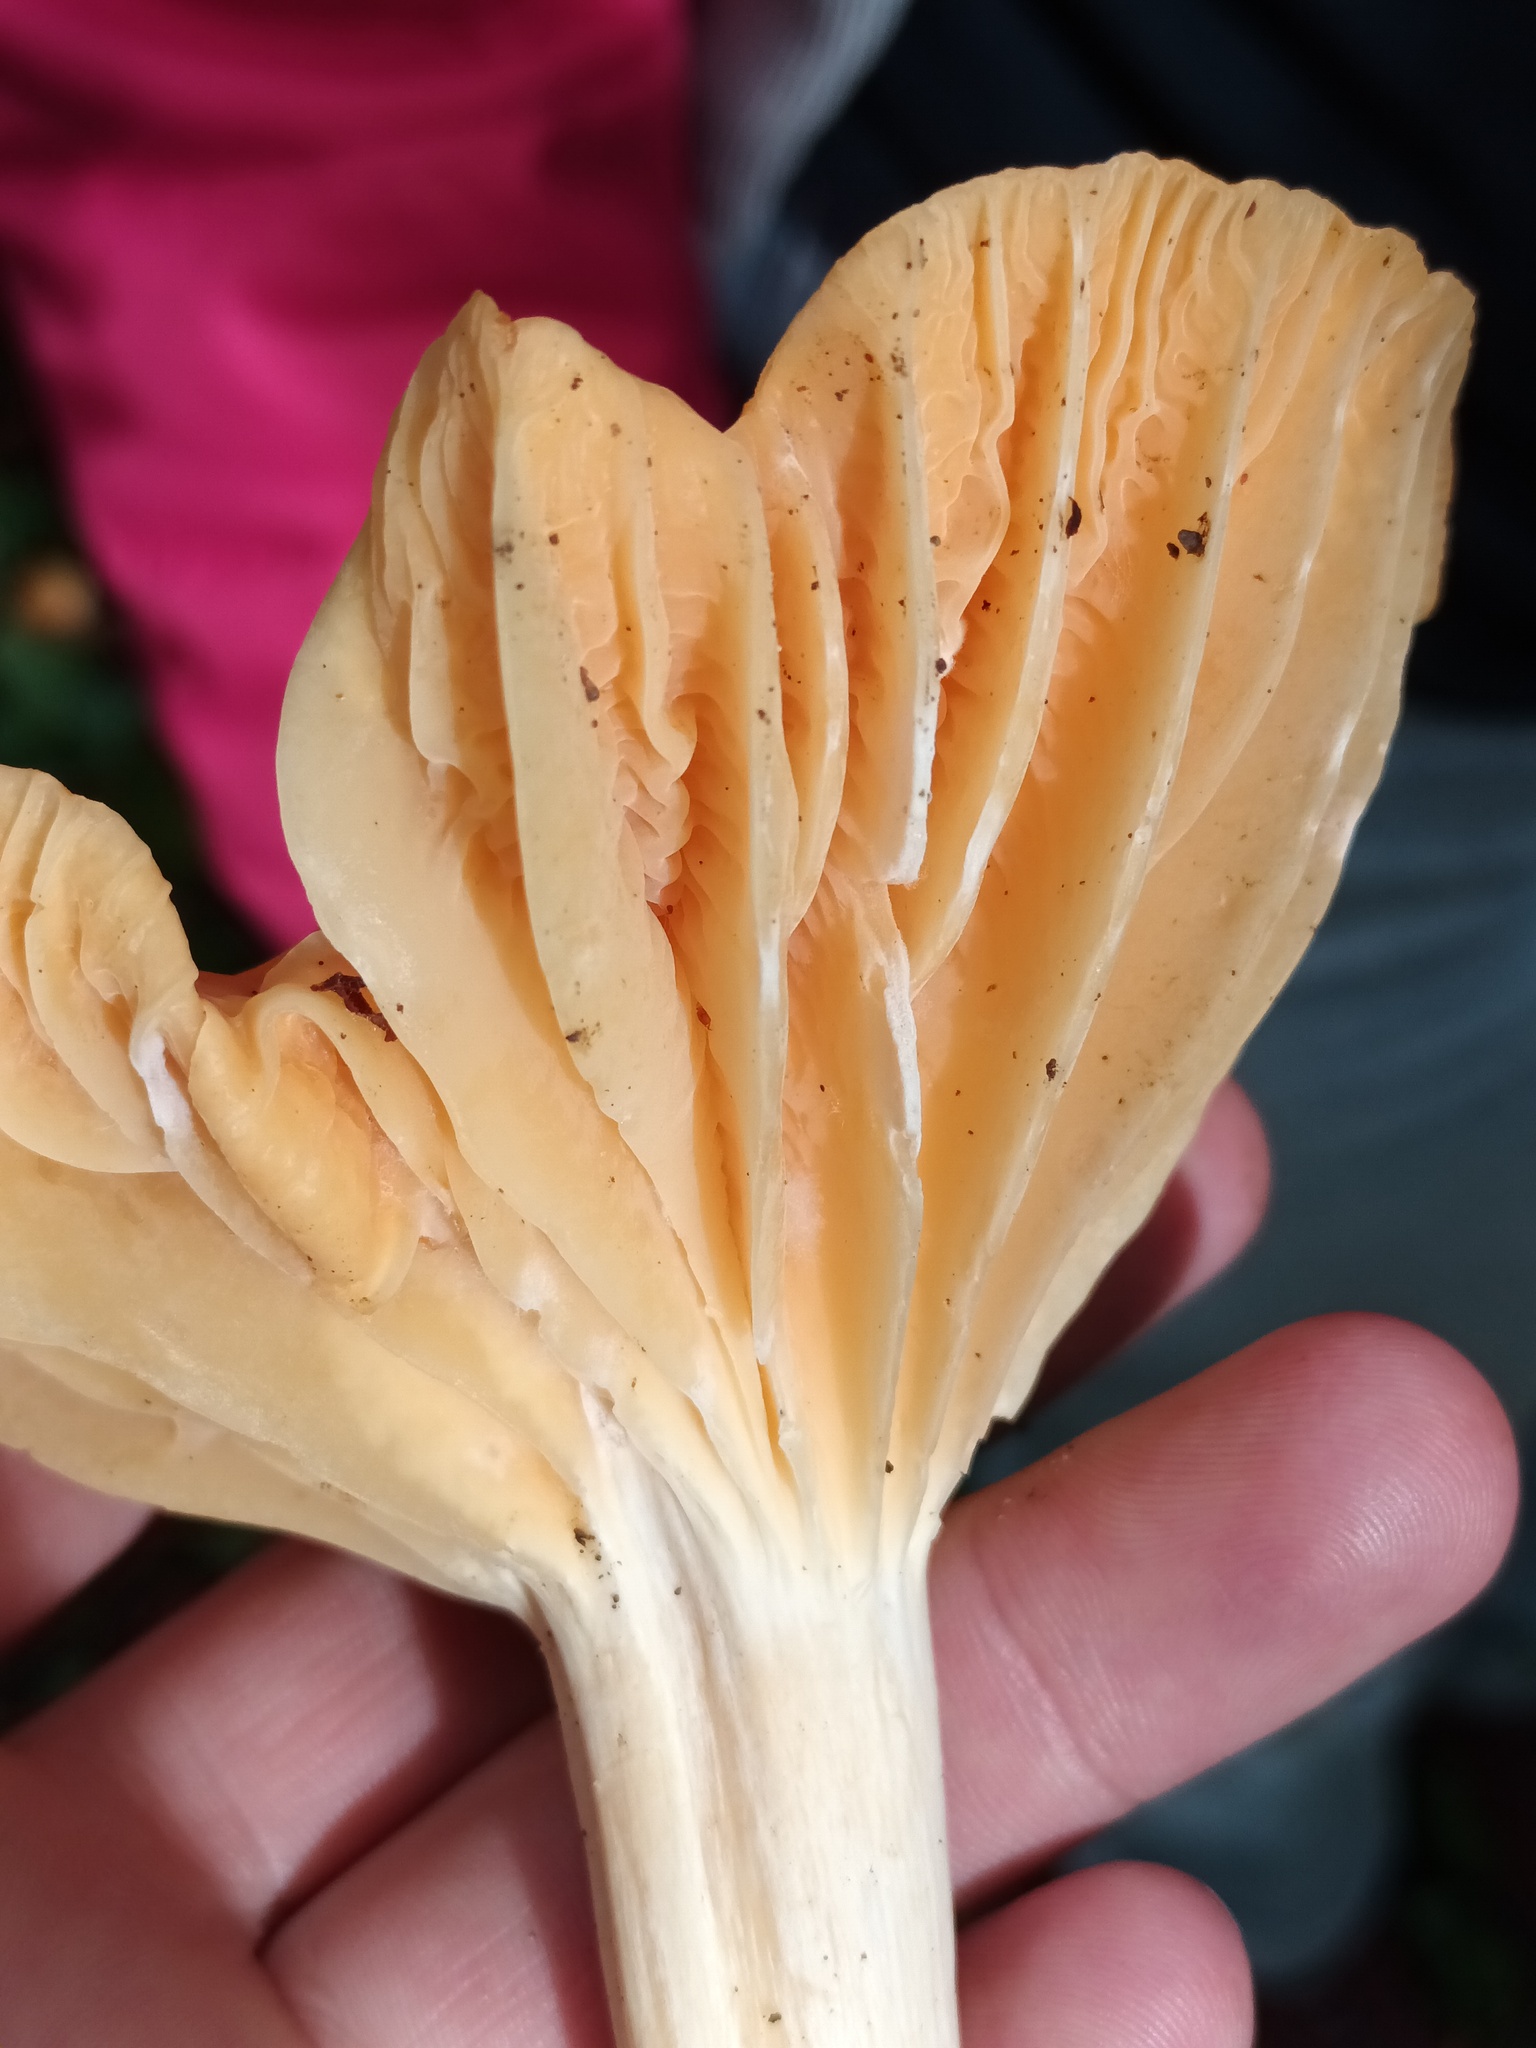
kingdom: Fungi
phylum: Basidiomycota
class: Agaricomycetes
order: Agaricales
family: Hygrophoraceae
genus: Cuphophyllus
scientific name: Cuphophyllus pratensis
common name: Meadow waxcap
